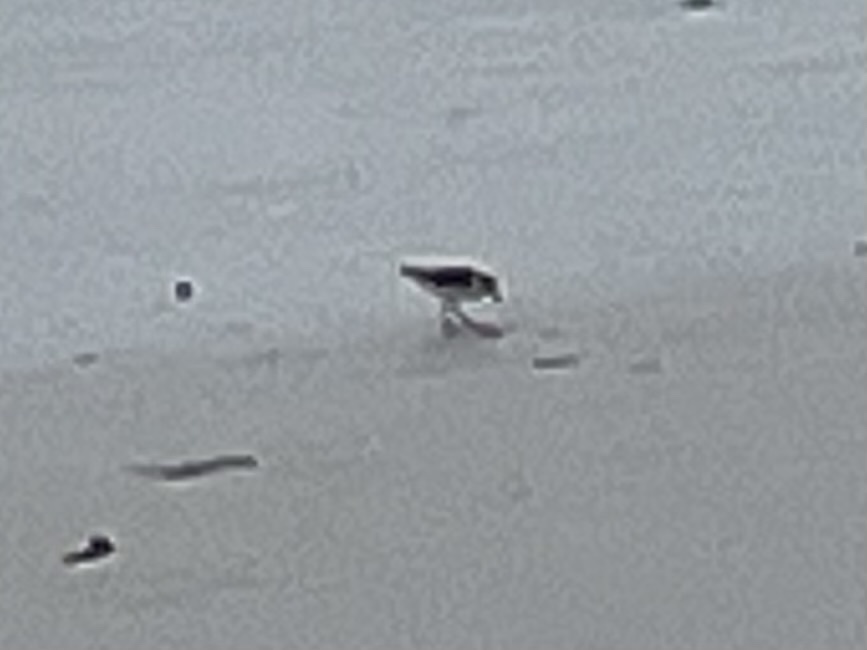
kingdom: Animalia
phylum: Chordata
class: Aves
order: Charadriiformes
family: Scolopacidae
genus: Calidris
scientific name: Calidris alba
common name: Sanderling
